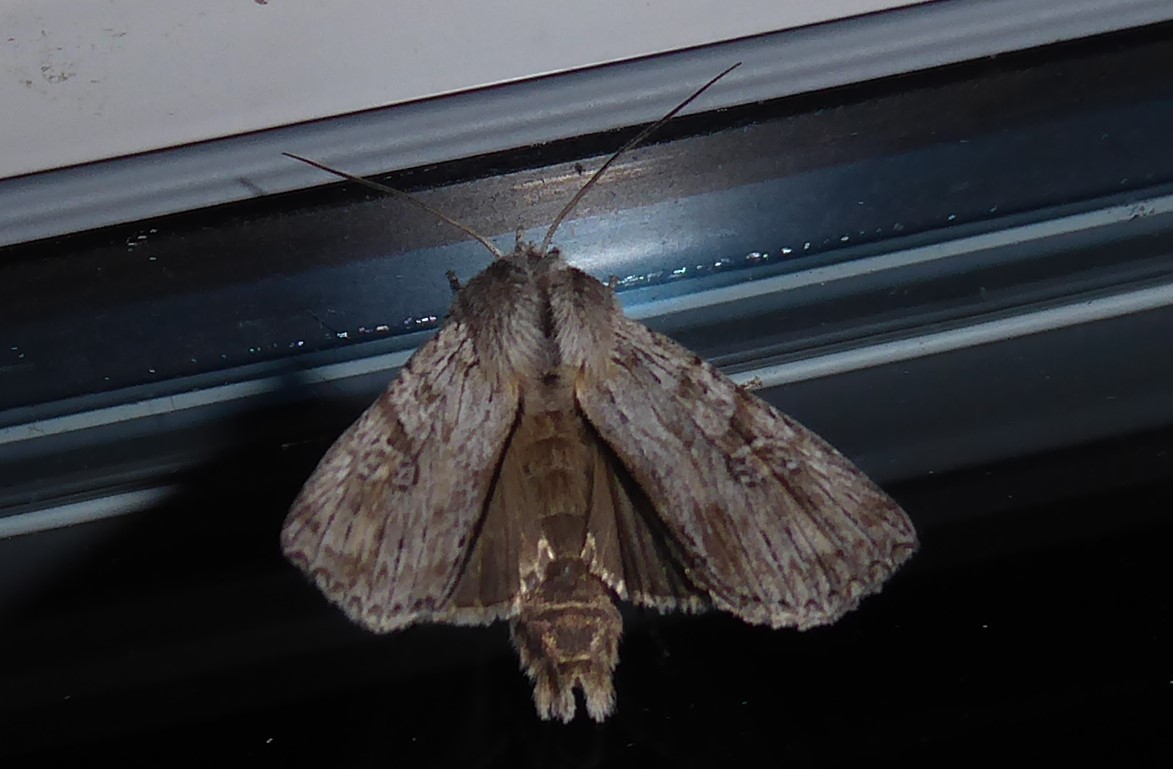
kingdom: Animalia
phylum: Arthropoda
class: Insecta
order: Lepidoptera
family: Noctuidae
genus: Physetica
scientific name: Physetica phricias
